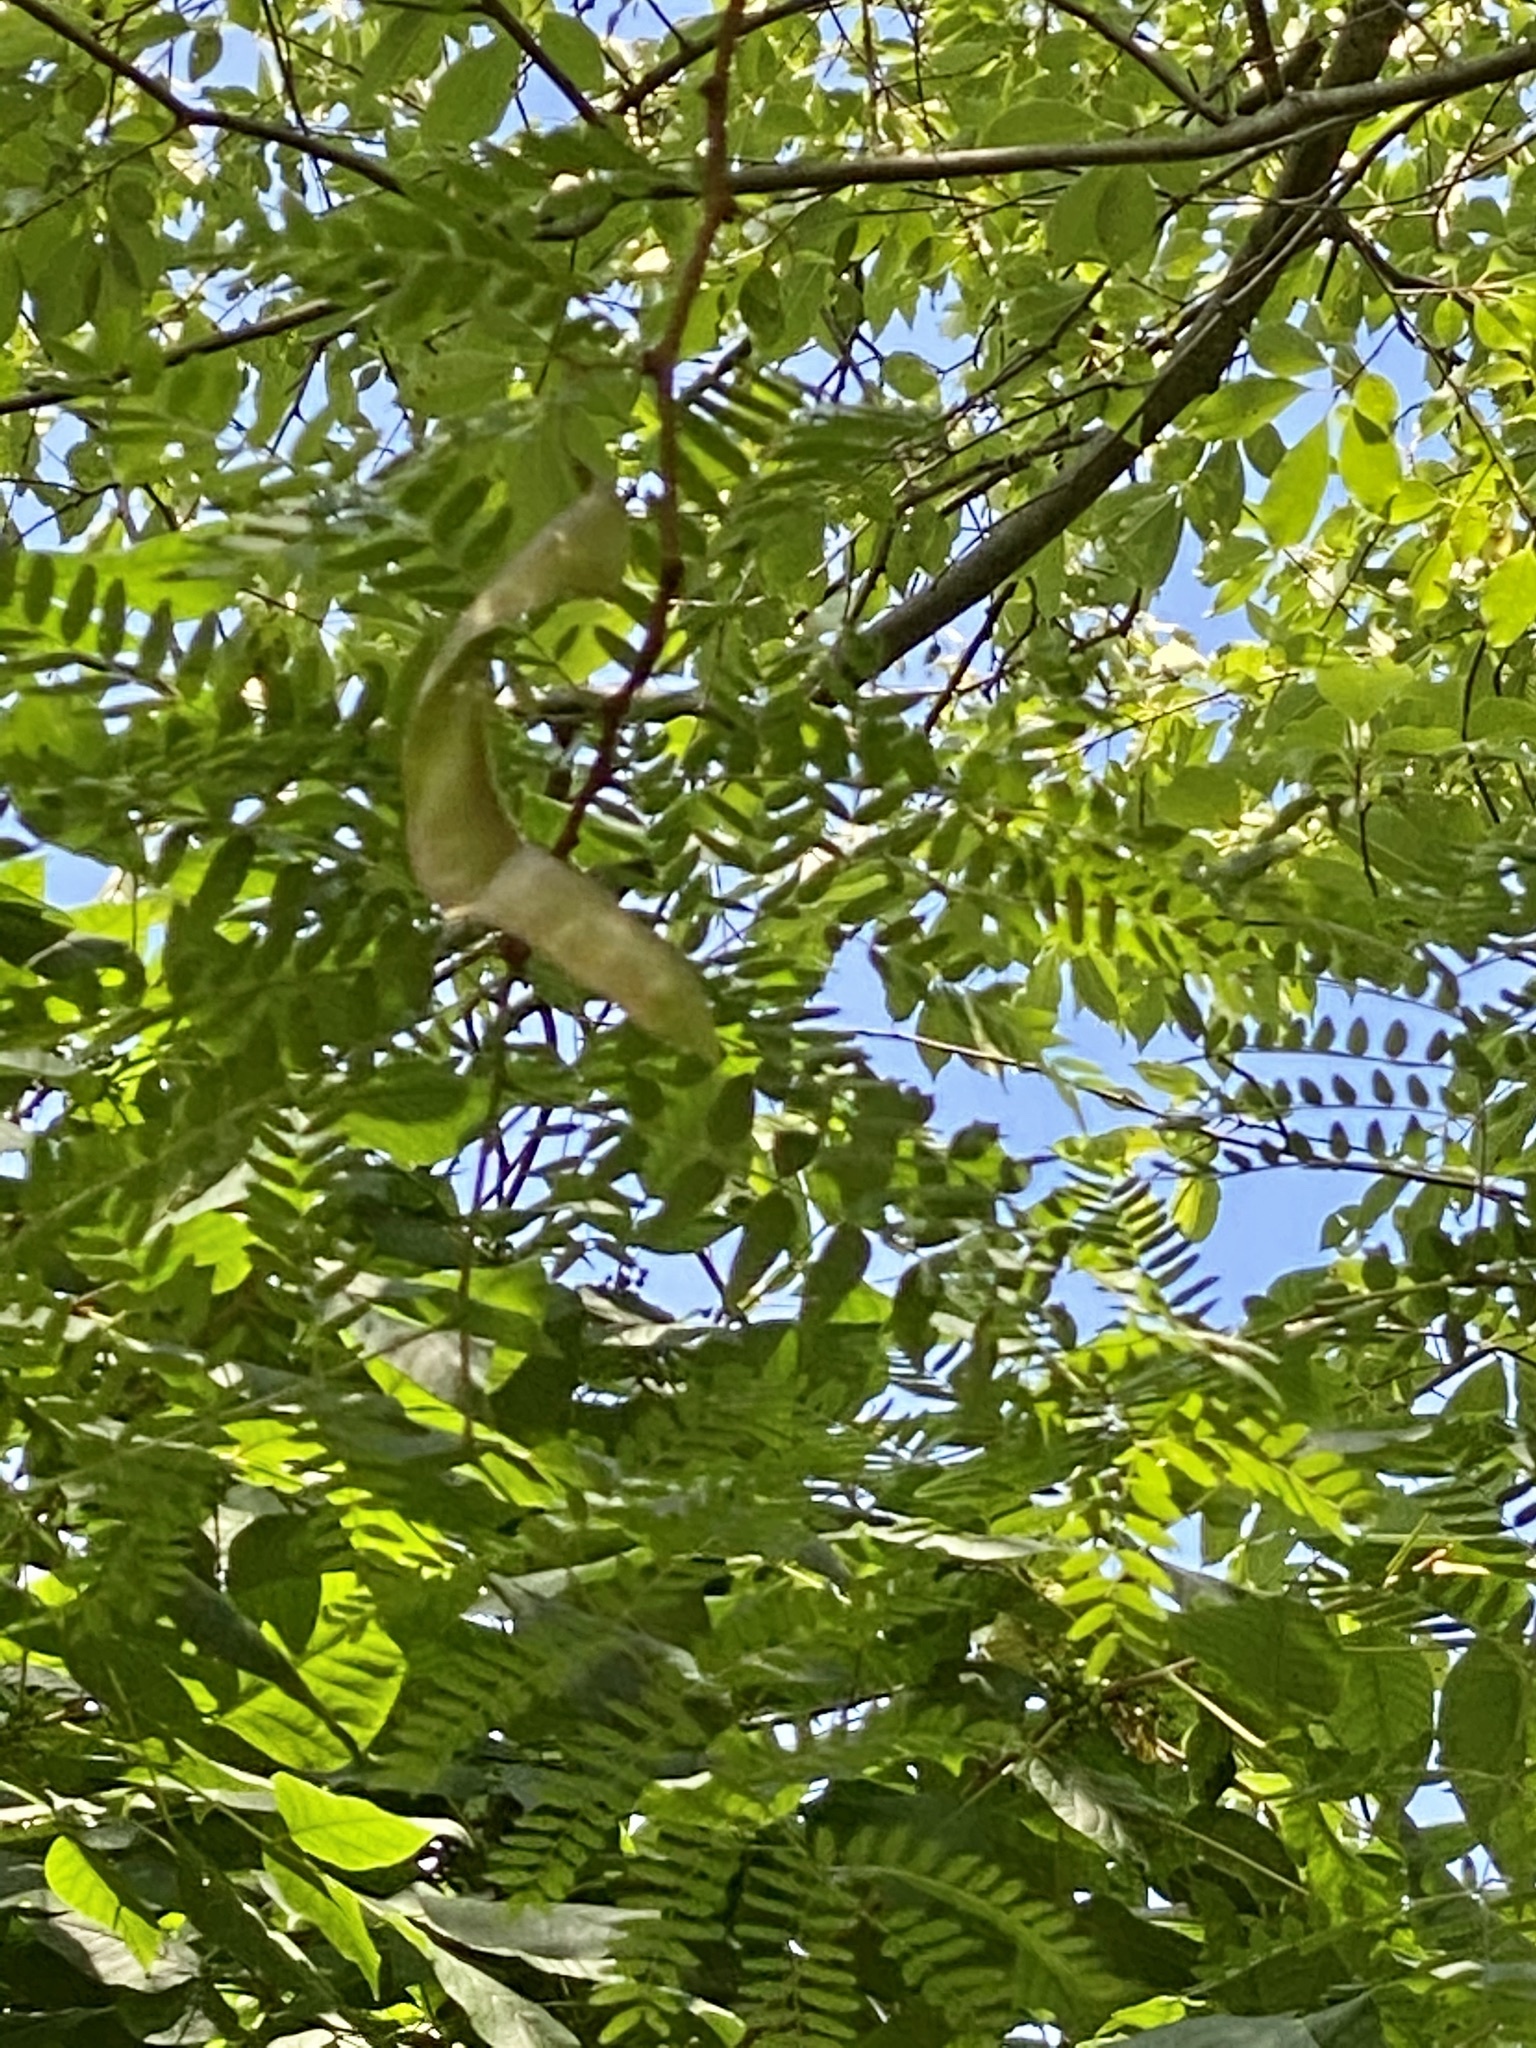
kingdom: Plantae
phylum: Tracheophyta
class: Magnoliopsida
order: Fabales
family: Fabaceae
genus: Gleditsia
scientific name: Gleditsia triacanthos
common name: Common honeylocust
